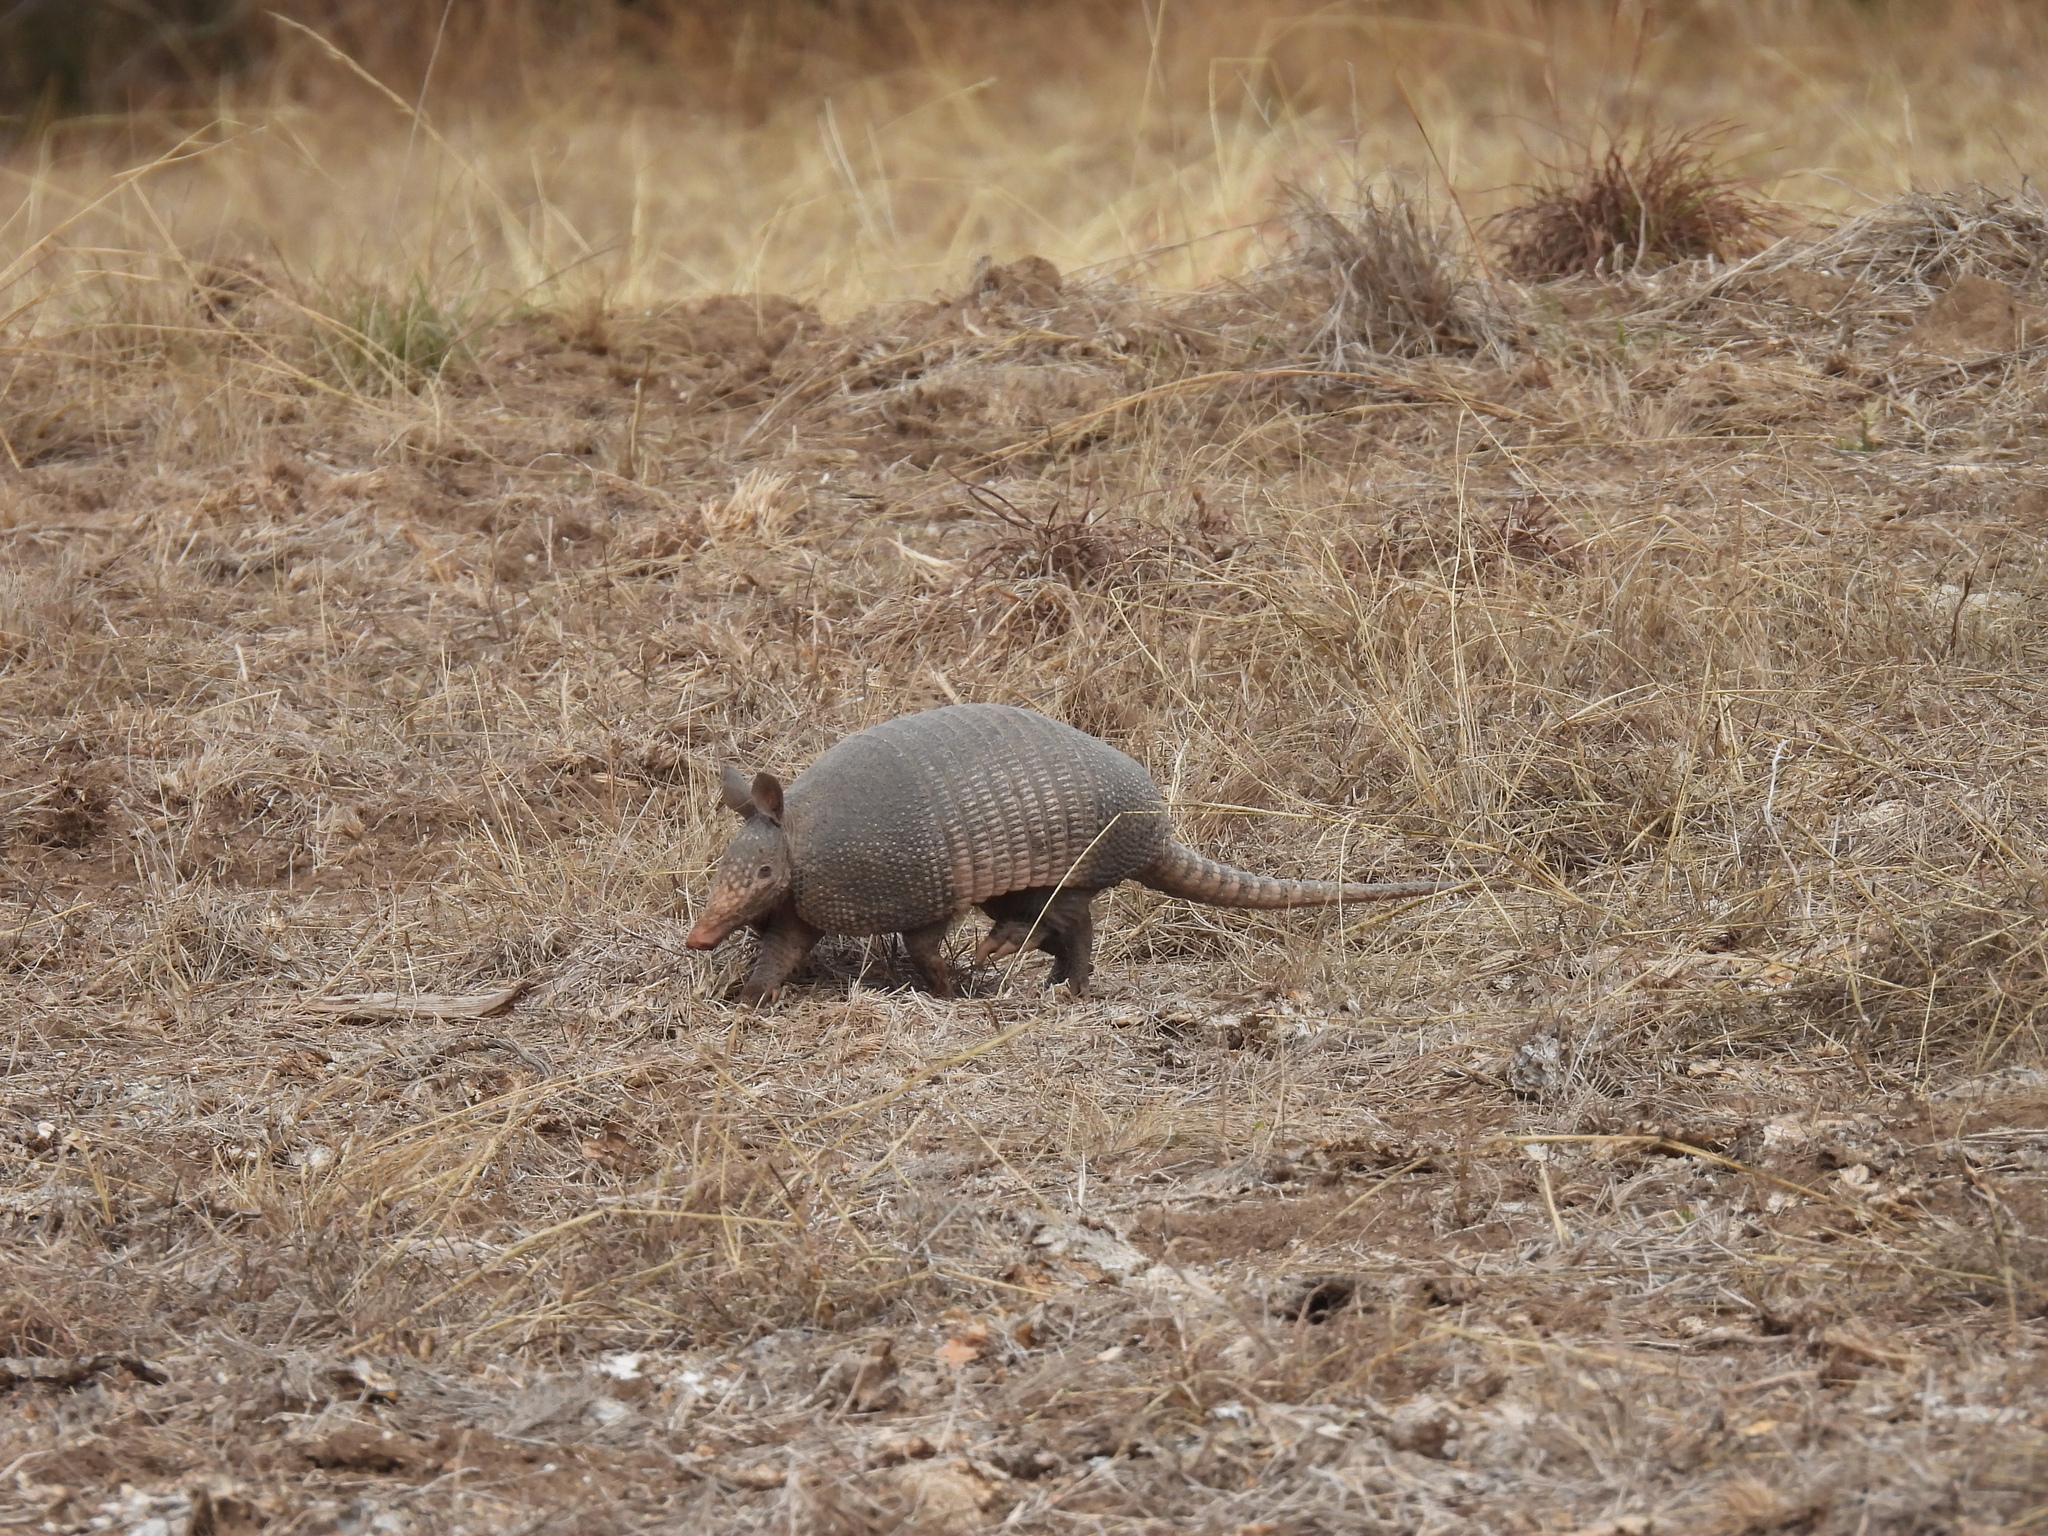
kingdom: Animalia
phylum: Chordata
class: Mammalia
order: Cingulata
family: Dasypodidae
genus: Dasypus
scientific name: Dasypus novemcinctus
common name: Nine-banded armadillo
